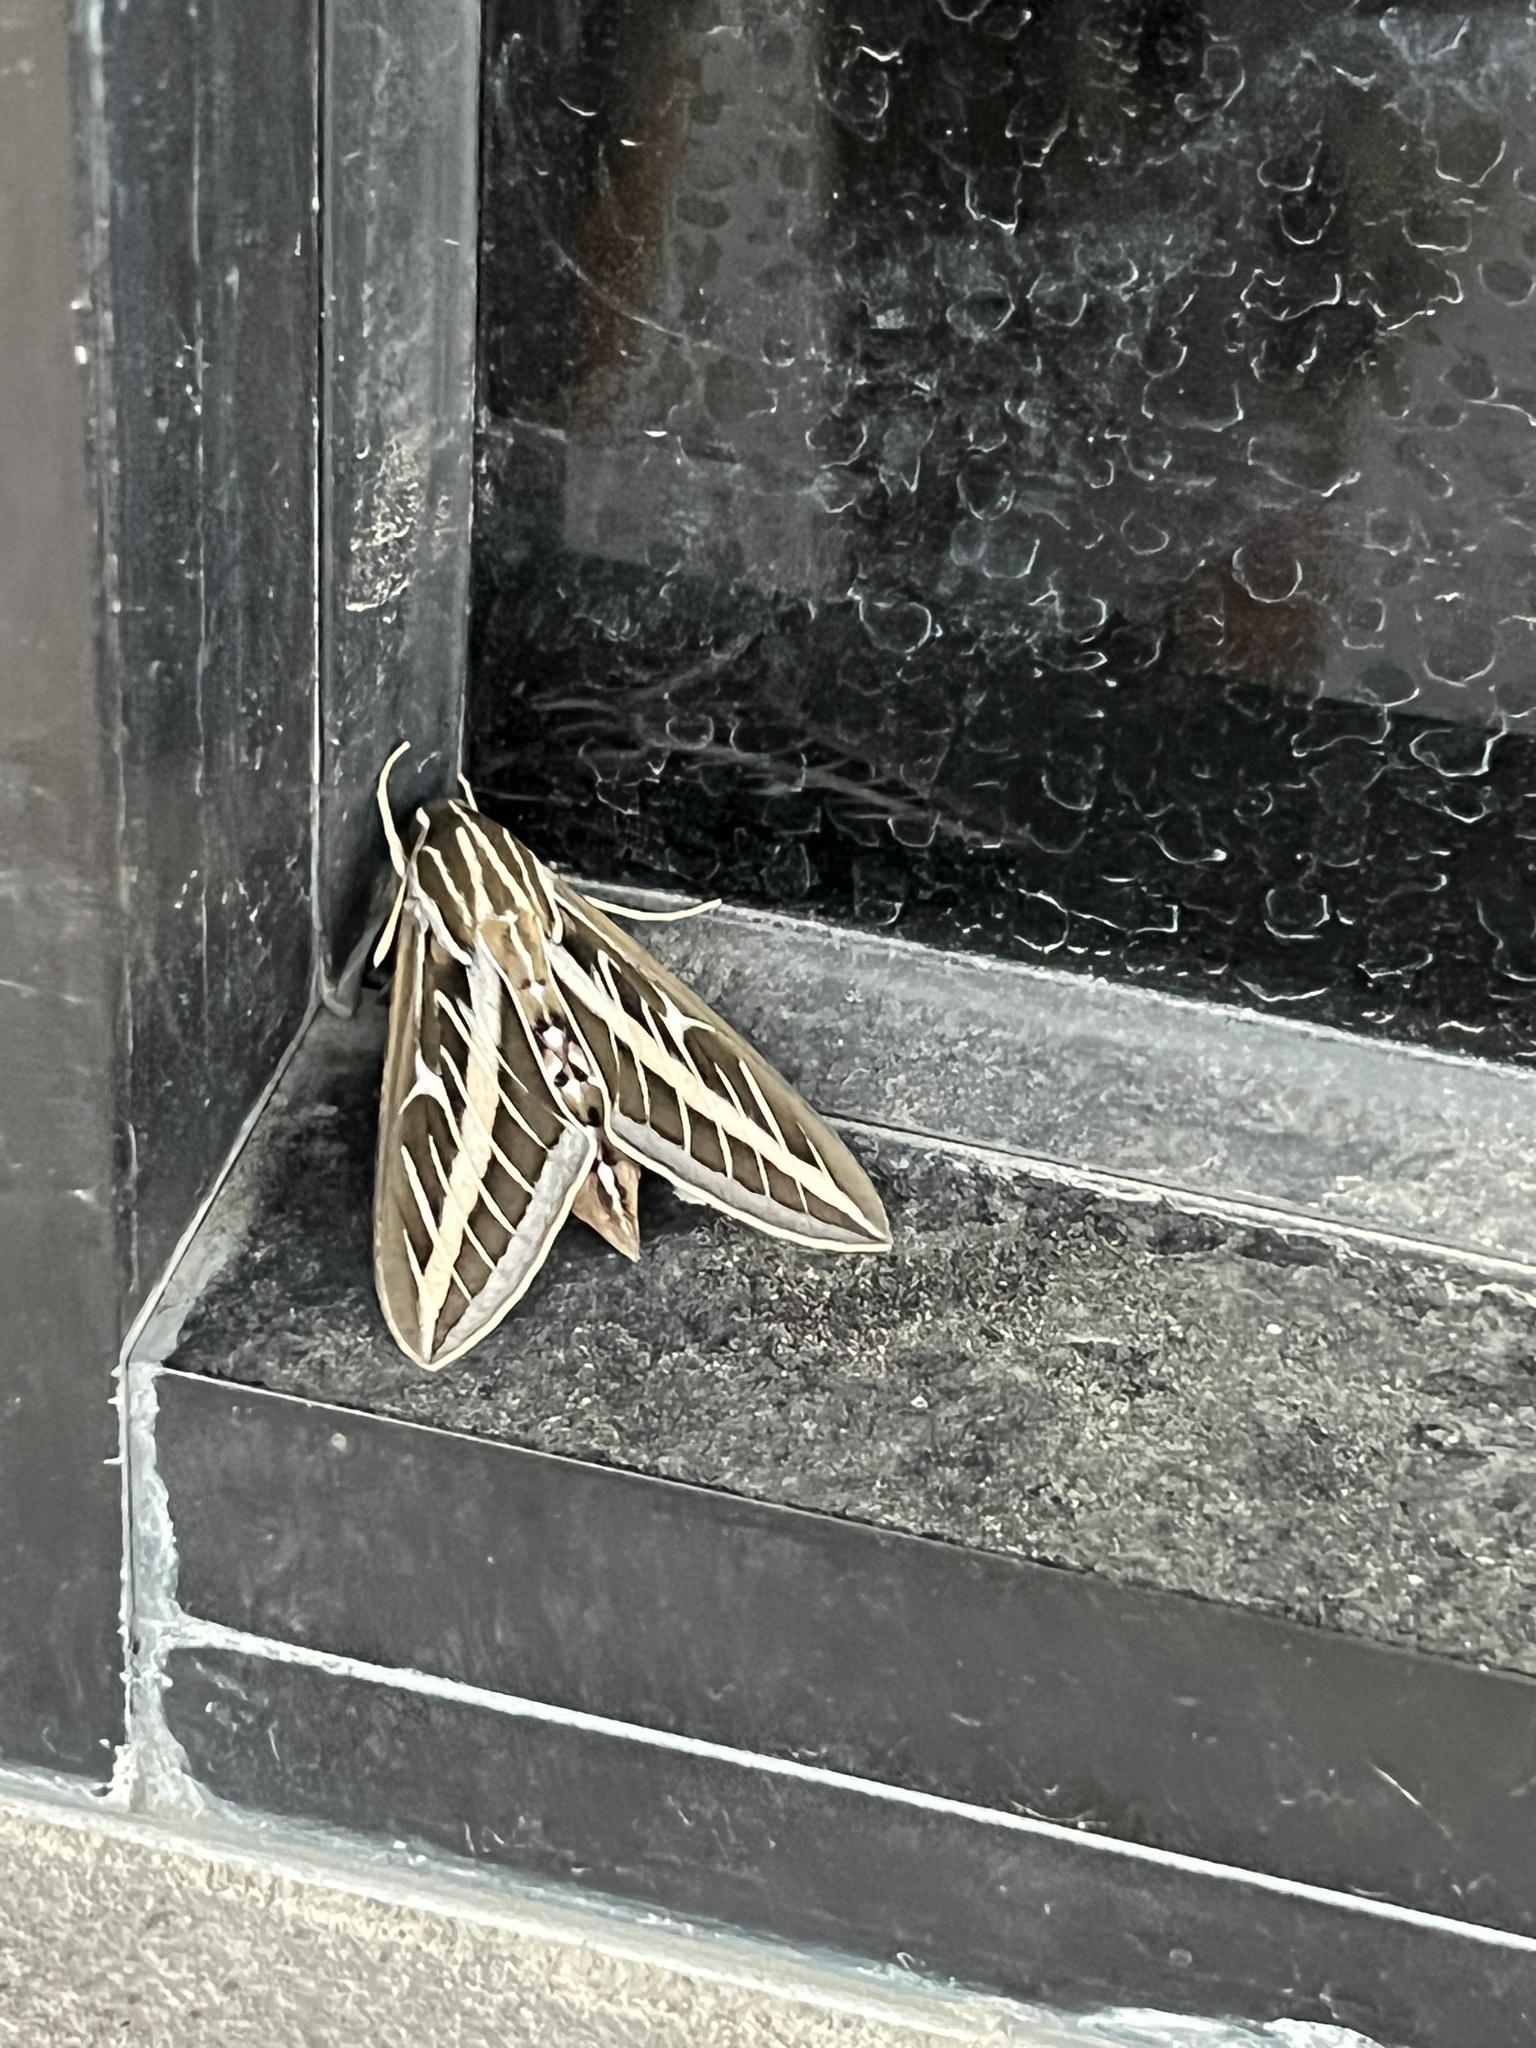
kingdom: Animalia
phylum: Arthropoda
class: Insecta
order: Lepidoptera
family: Sphingidae
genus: Hyles
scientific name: Hyles lineata
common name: White-lined sphinx
